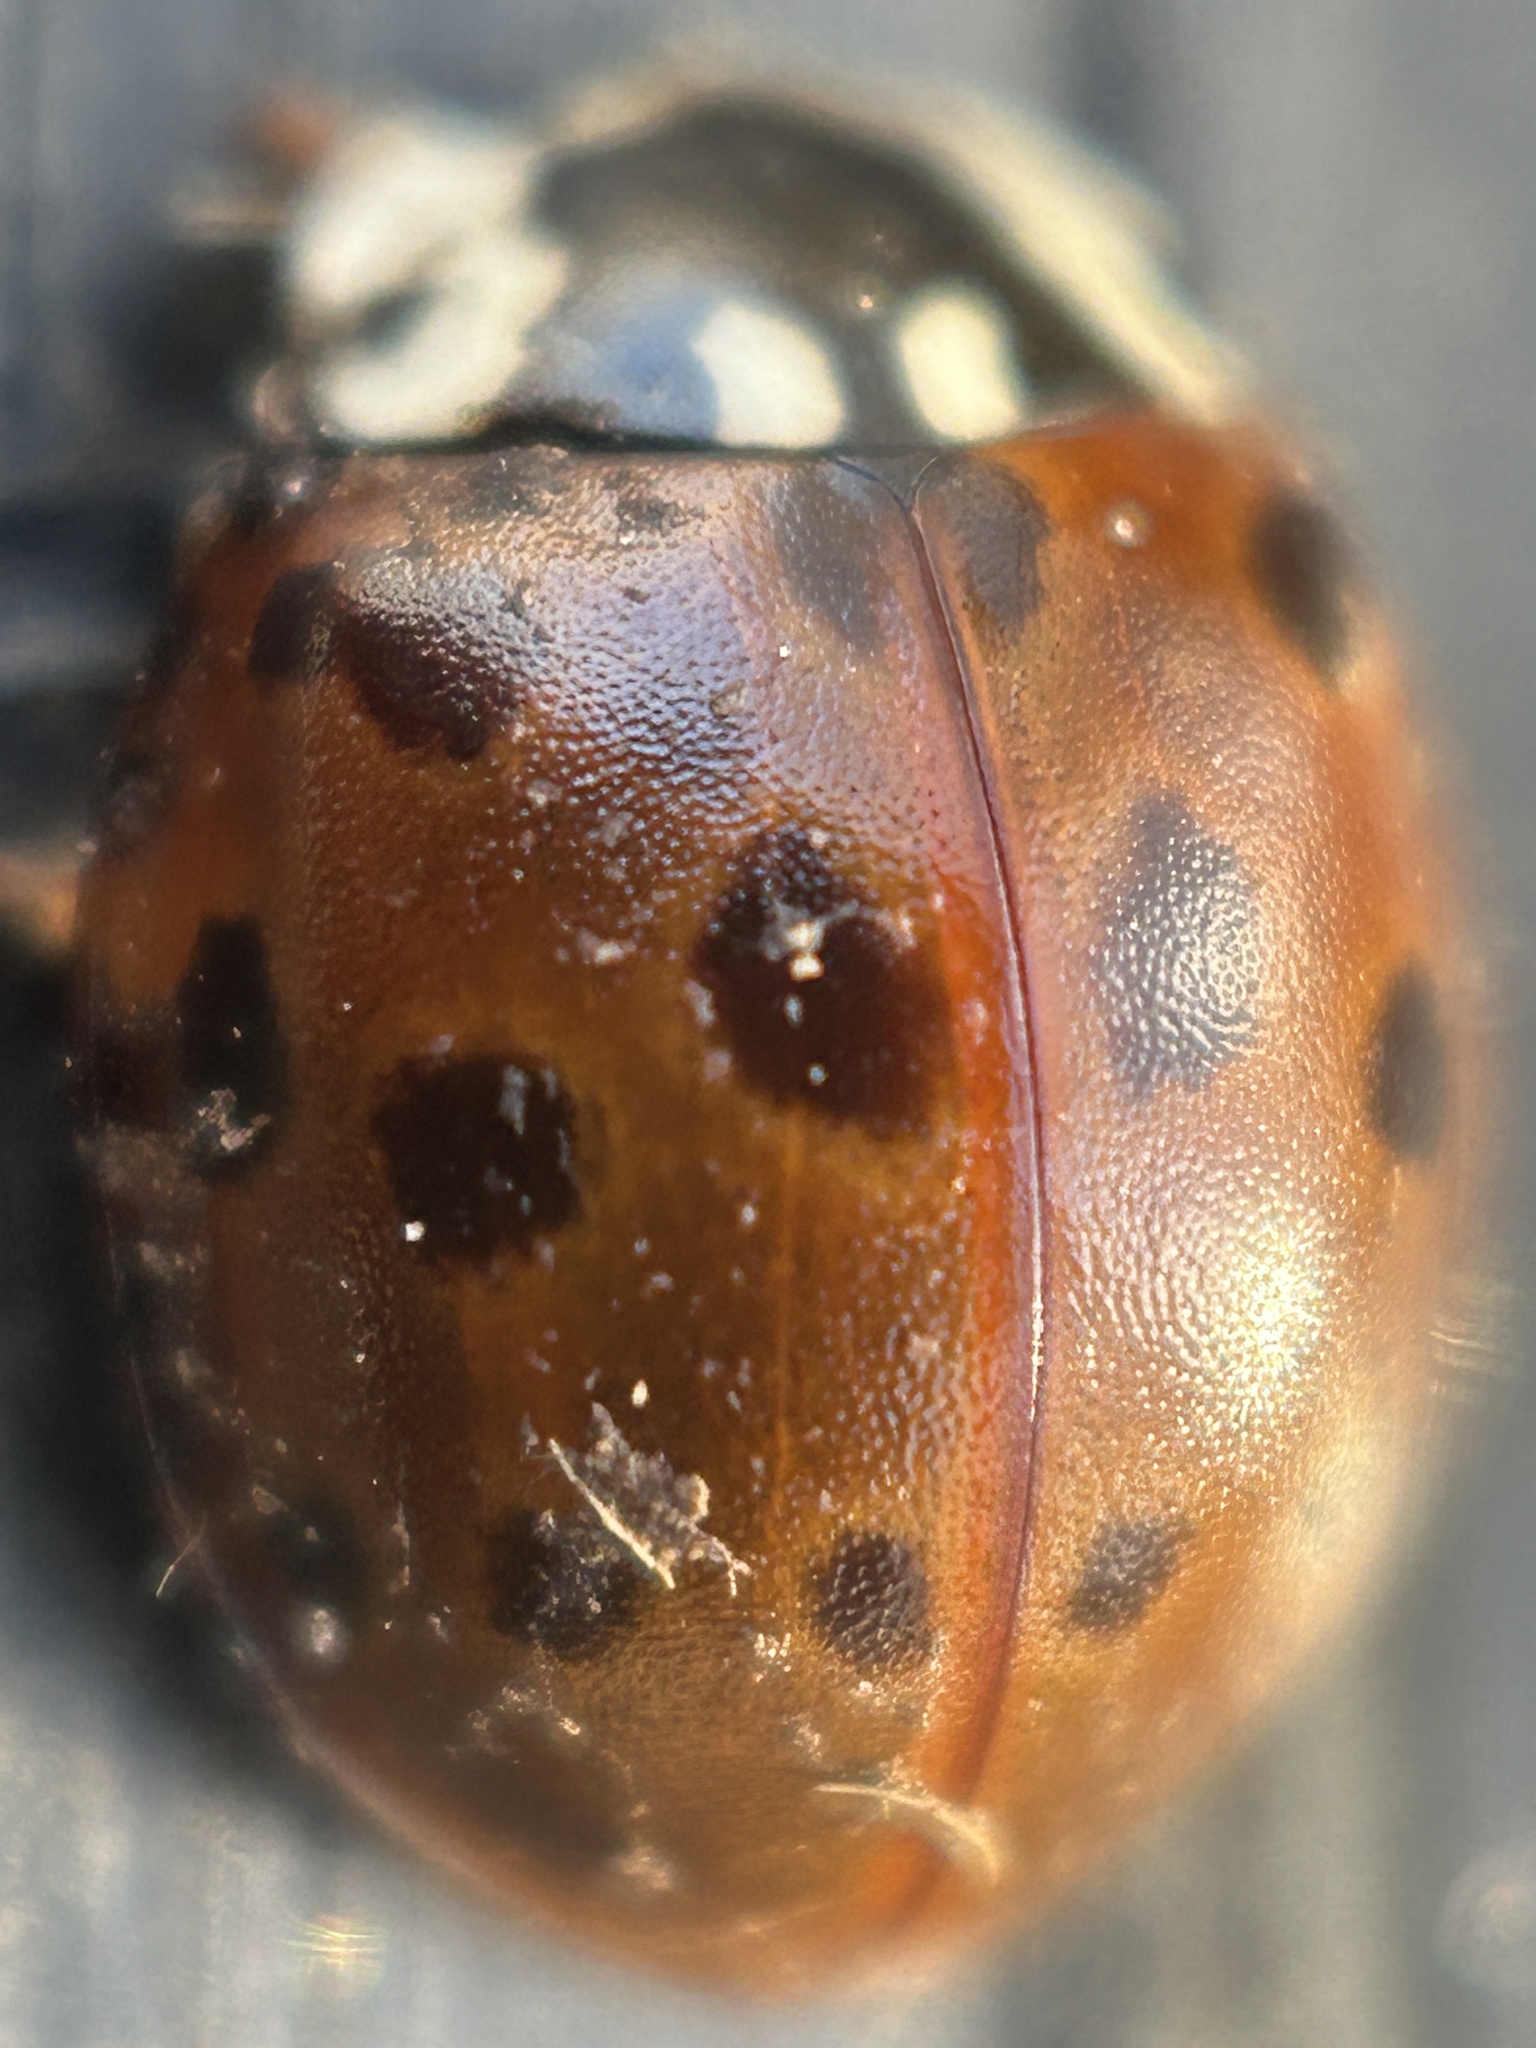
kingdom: Animalia
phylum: Arthropoda
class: Insecta
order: Coleoptera
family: Coccinellidae
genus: Anatis
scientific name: Anatis mali
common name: Eye-spotted lady beetle
